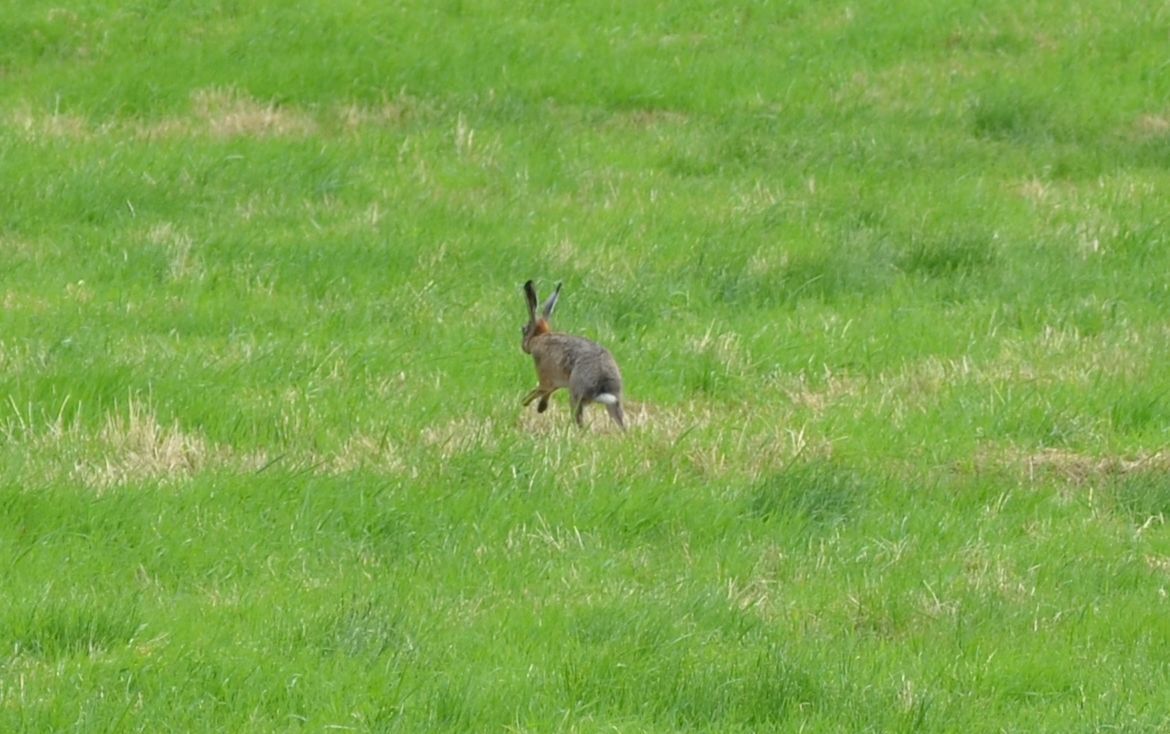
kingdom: Animalia
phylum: Chordata
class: Mammalia
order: Lagomorpha
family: Leporidae
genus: Lepus
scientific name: Lepus europaeus
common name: European hare
